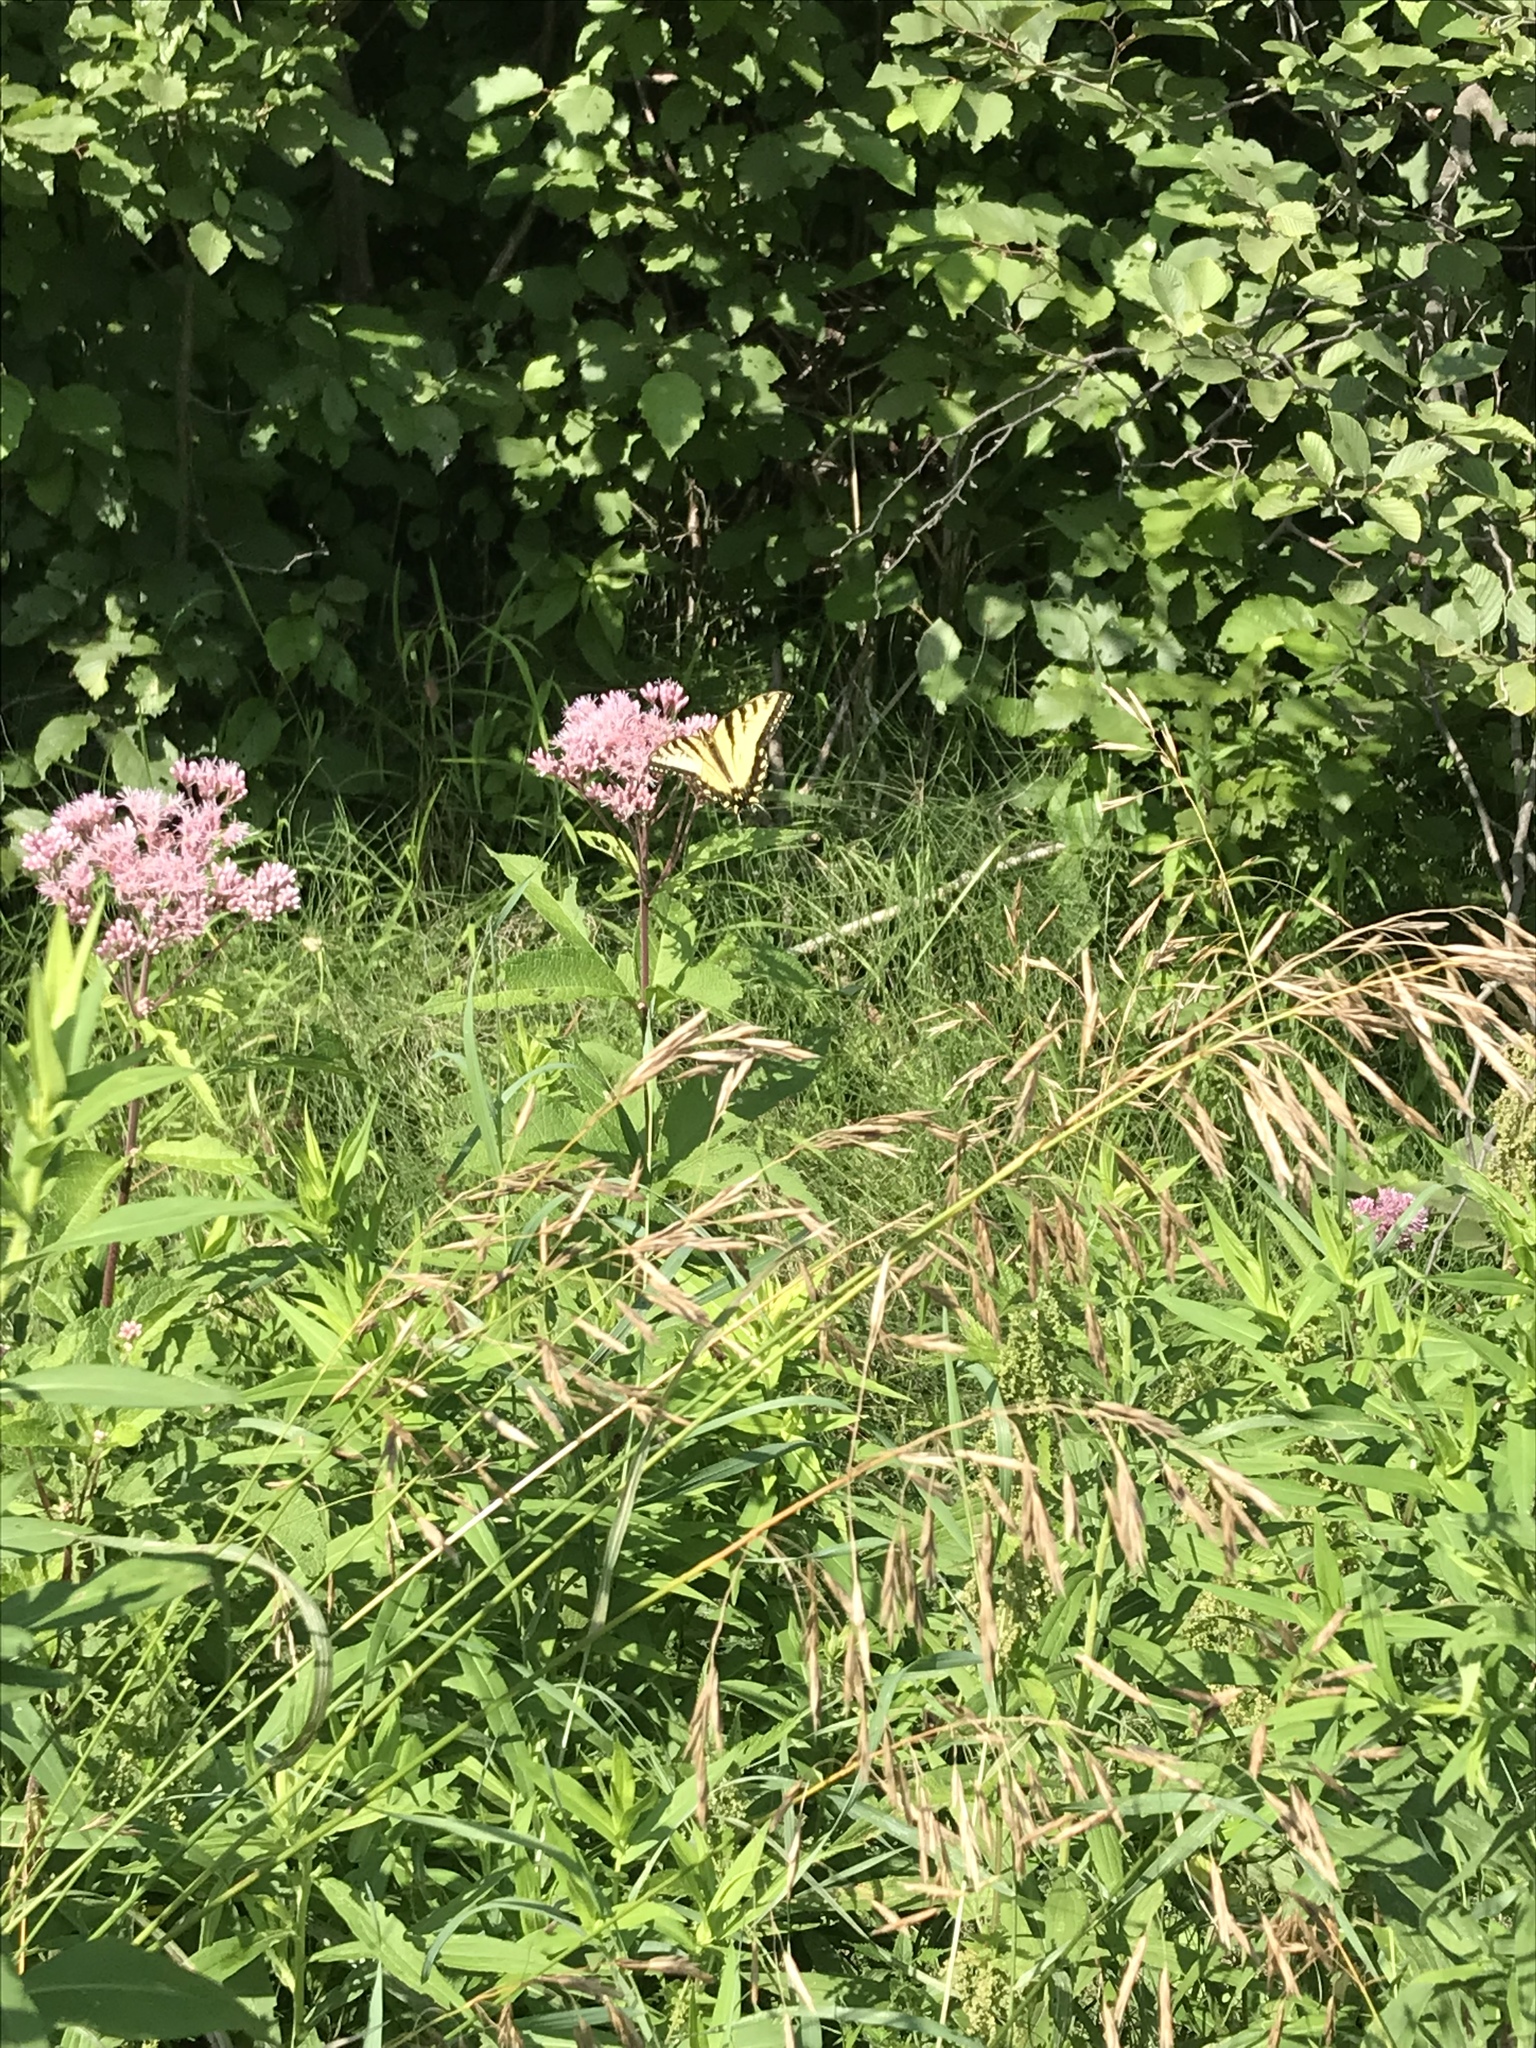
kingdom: Animalia
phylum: Arthropoda
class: Insecta
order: Lepidoptera
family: Papilionidae
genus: Papilio
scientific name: Papilio
